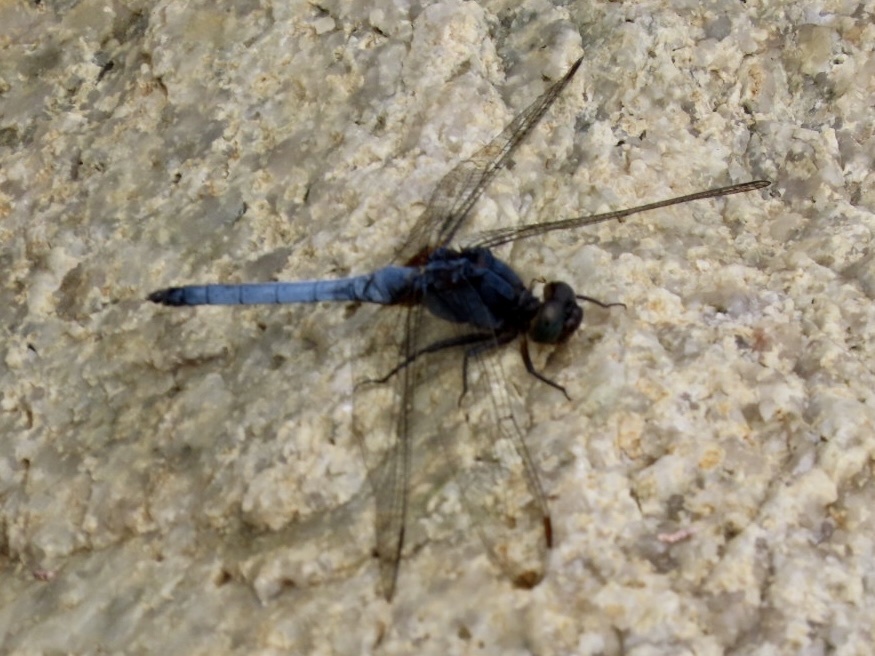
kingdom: Animalia
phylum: Arthropoda
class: Insecta
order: Odonata
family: Libellulidae
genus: Orthetrum
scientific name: Orthetrum glaucum
